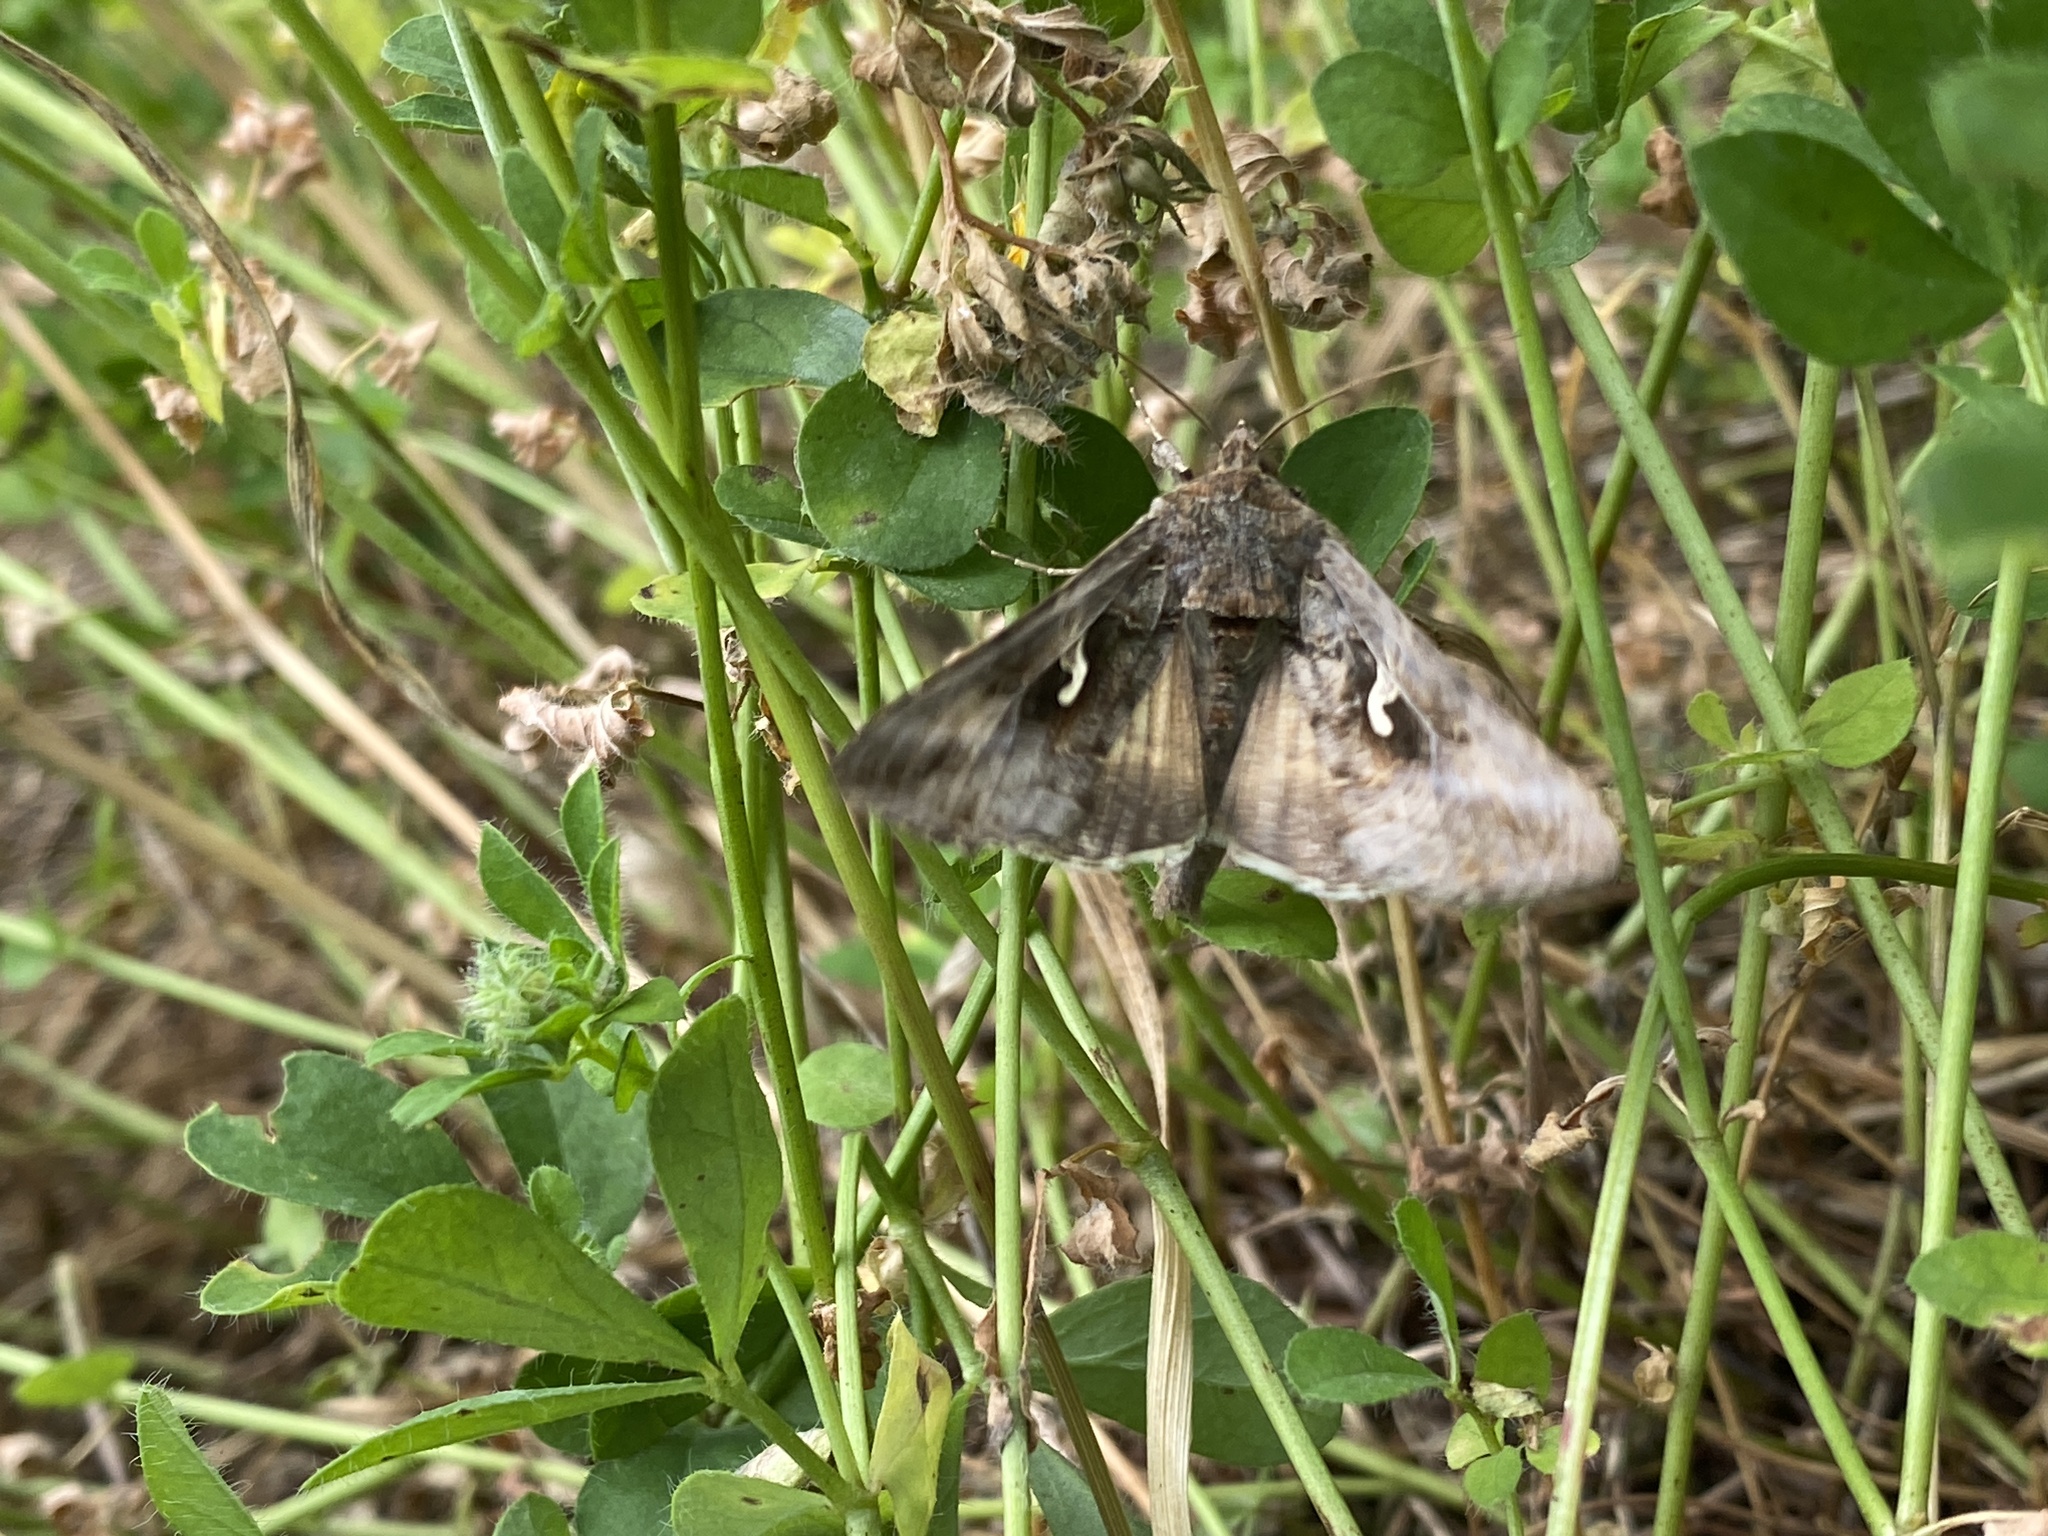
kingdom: Animalia
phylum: Arthropoda
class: Insecta
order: Lepidoptera
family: Noctuidae
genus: Autographa
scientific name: Autographa gamma
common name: Silver y
